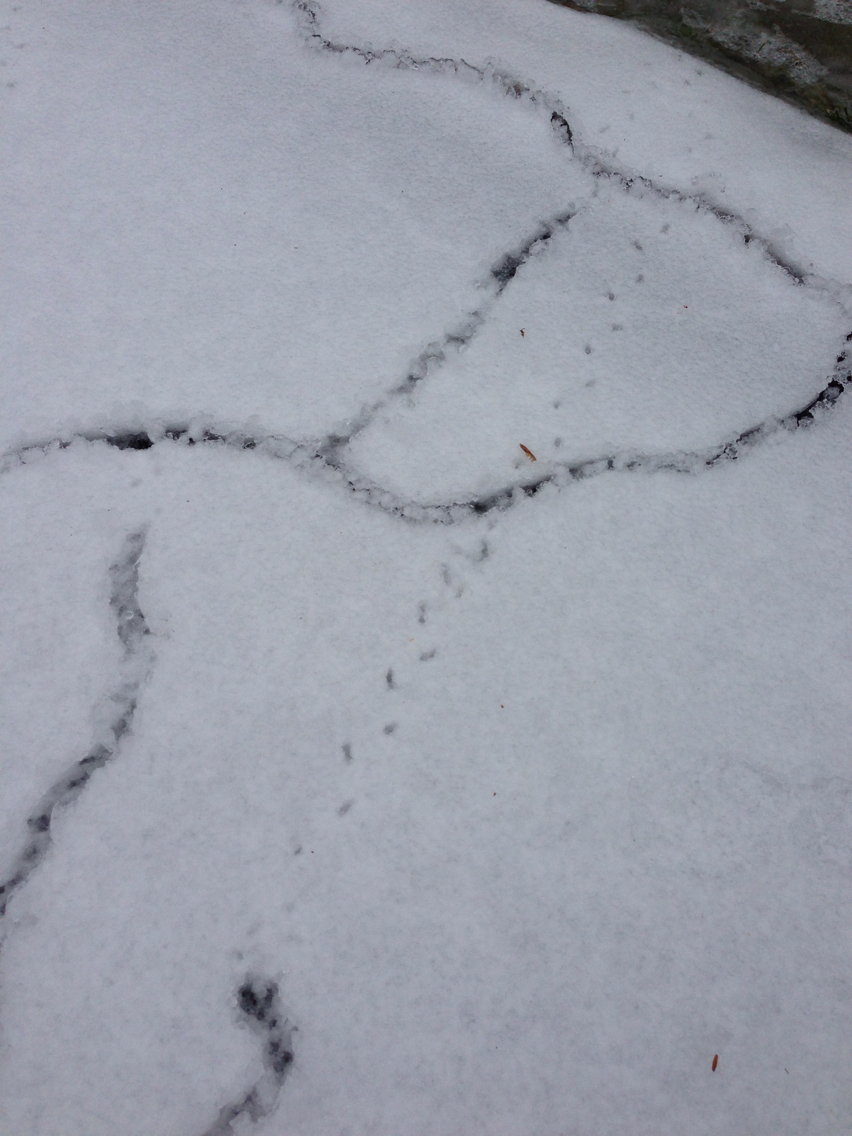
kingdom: Animalia
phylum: Chordata
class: Mammalia
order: Rodentia
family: Cricetidae
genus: Microtus
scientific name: Microtus pennsylvanicus
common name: Meadow vole
